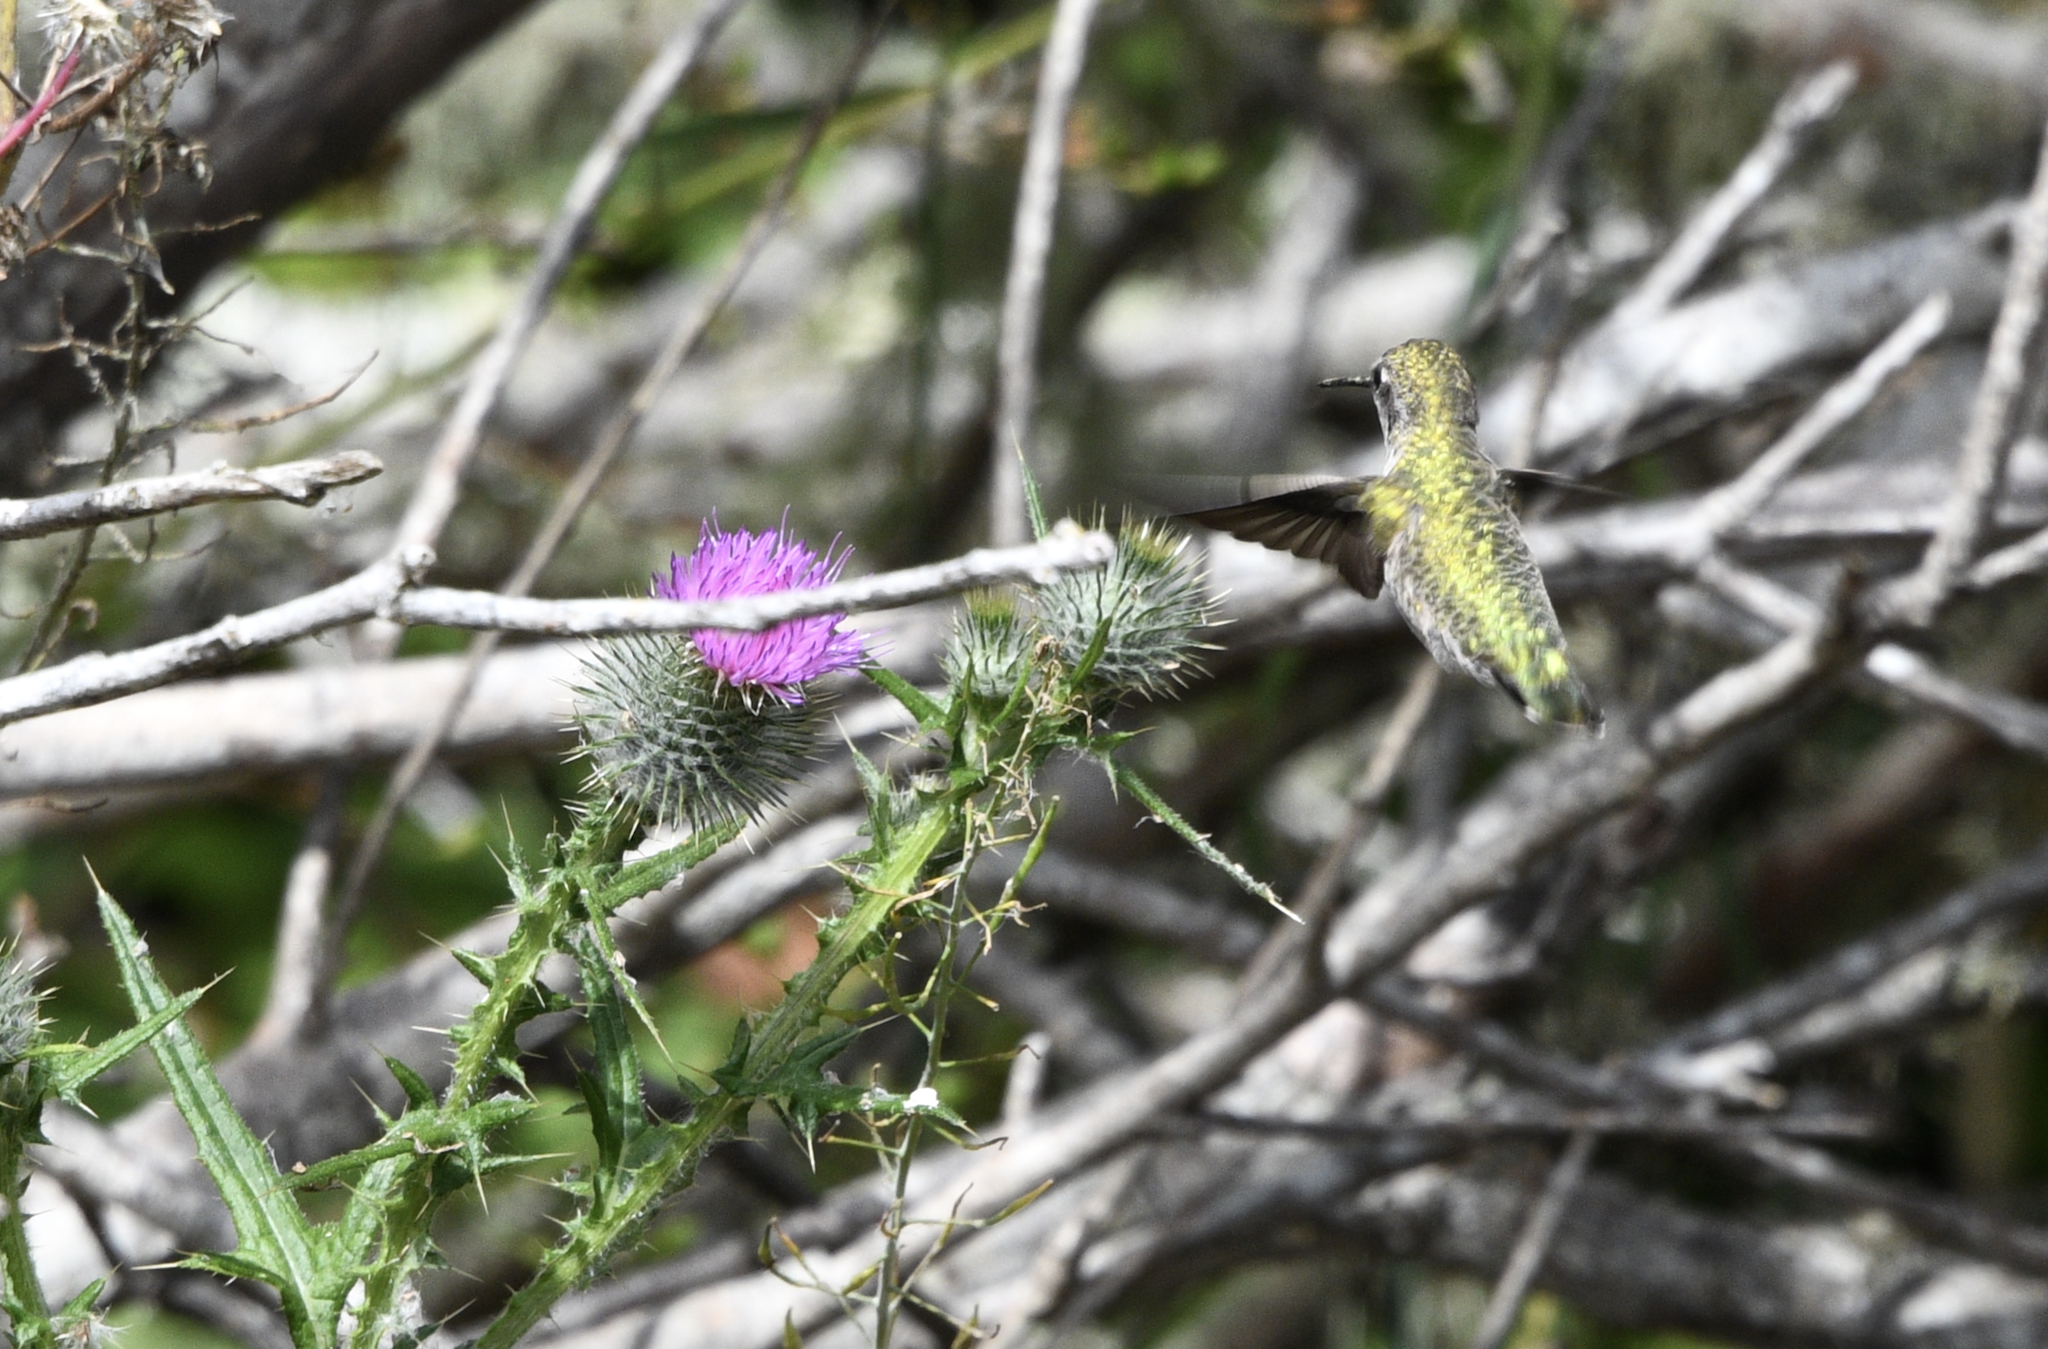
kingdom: Animalia
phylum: Chordata
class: Aves
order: Apodiformes
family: Trochilidae
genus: Calypte
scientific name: Calypte anna
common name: Anna's hummingbird
